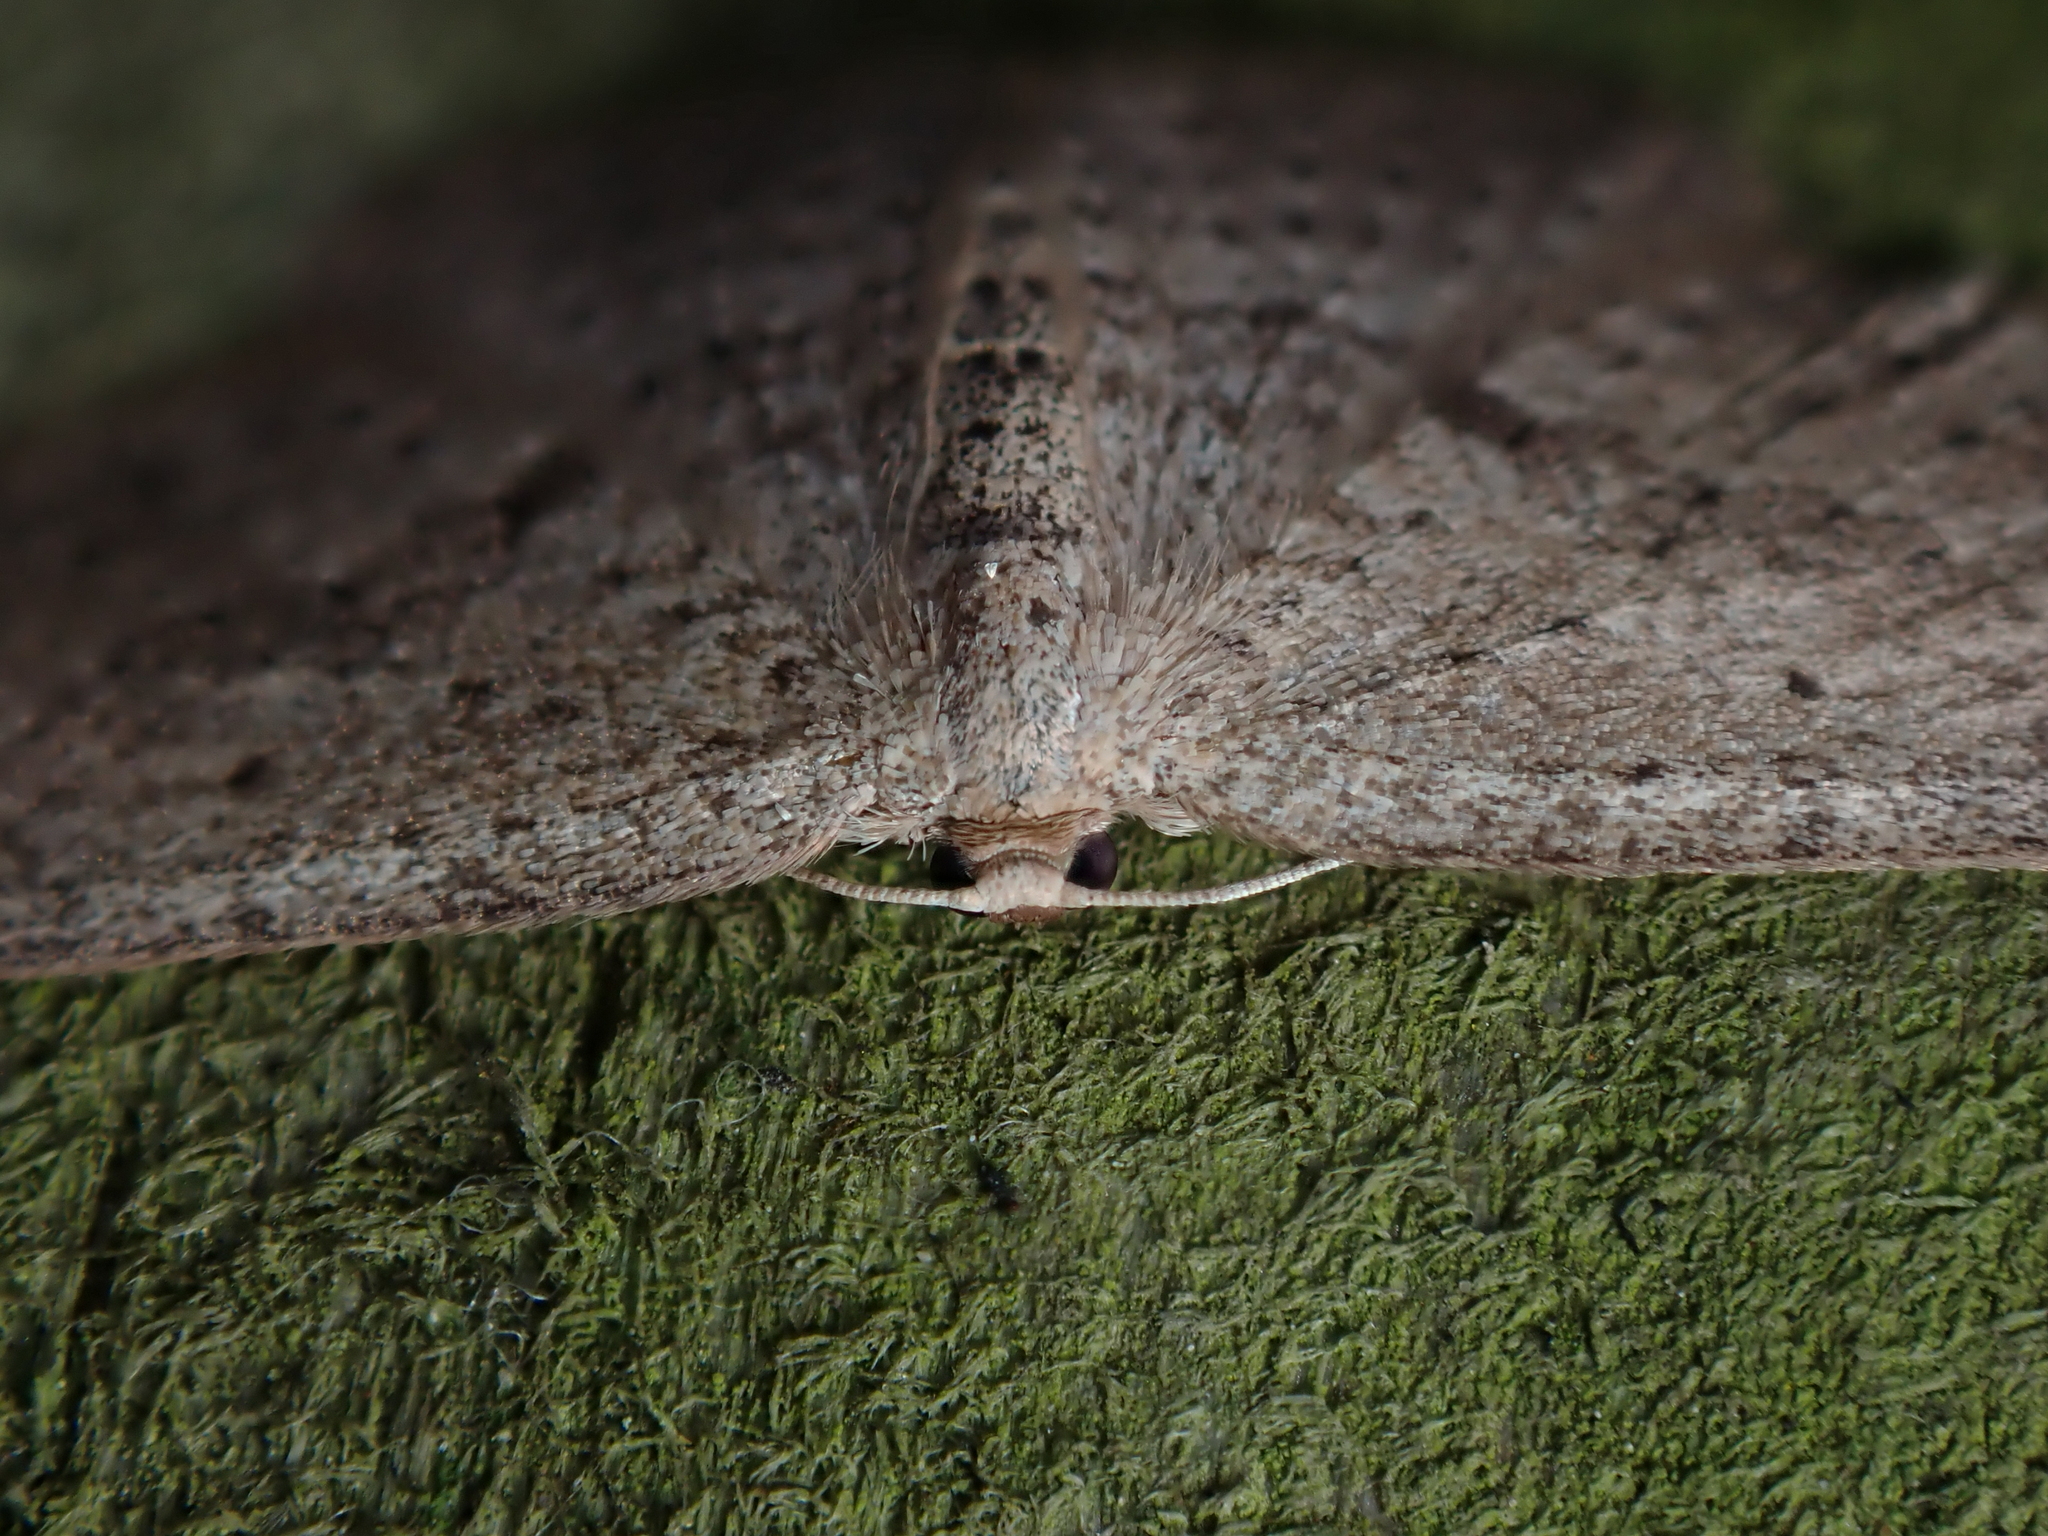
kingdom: Animalia
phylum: Arthropoda
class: Insecta
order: Lepidoptera
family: Geometridae
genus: Poecilasthena
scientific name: Poecilasthena schistaria
